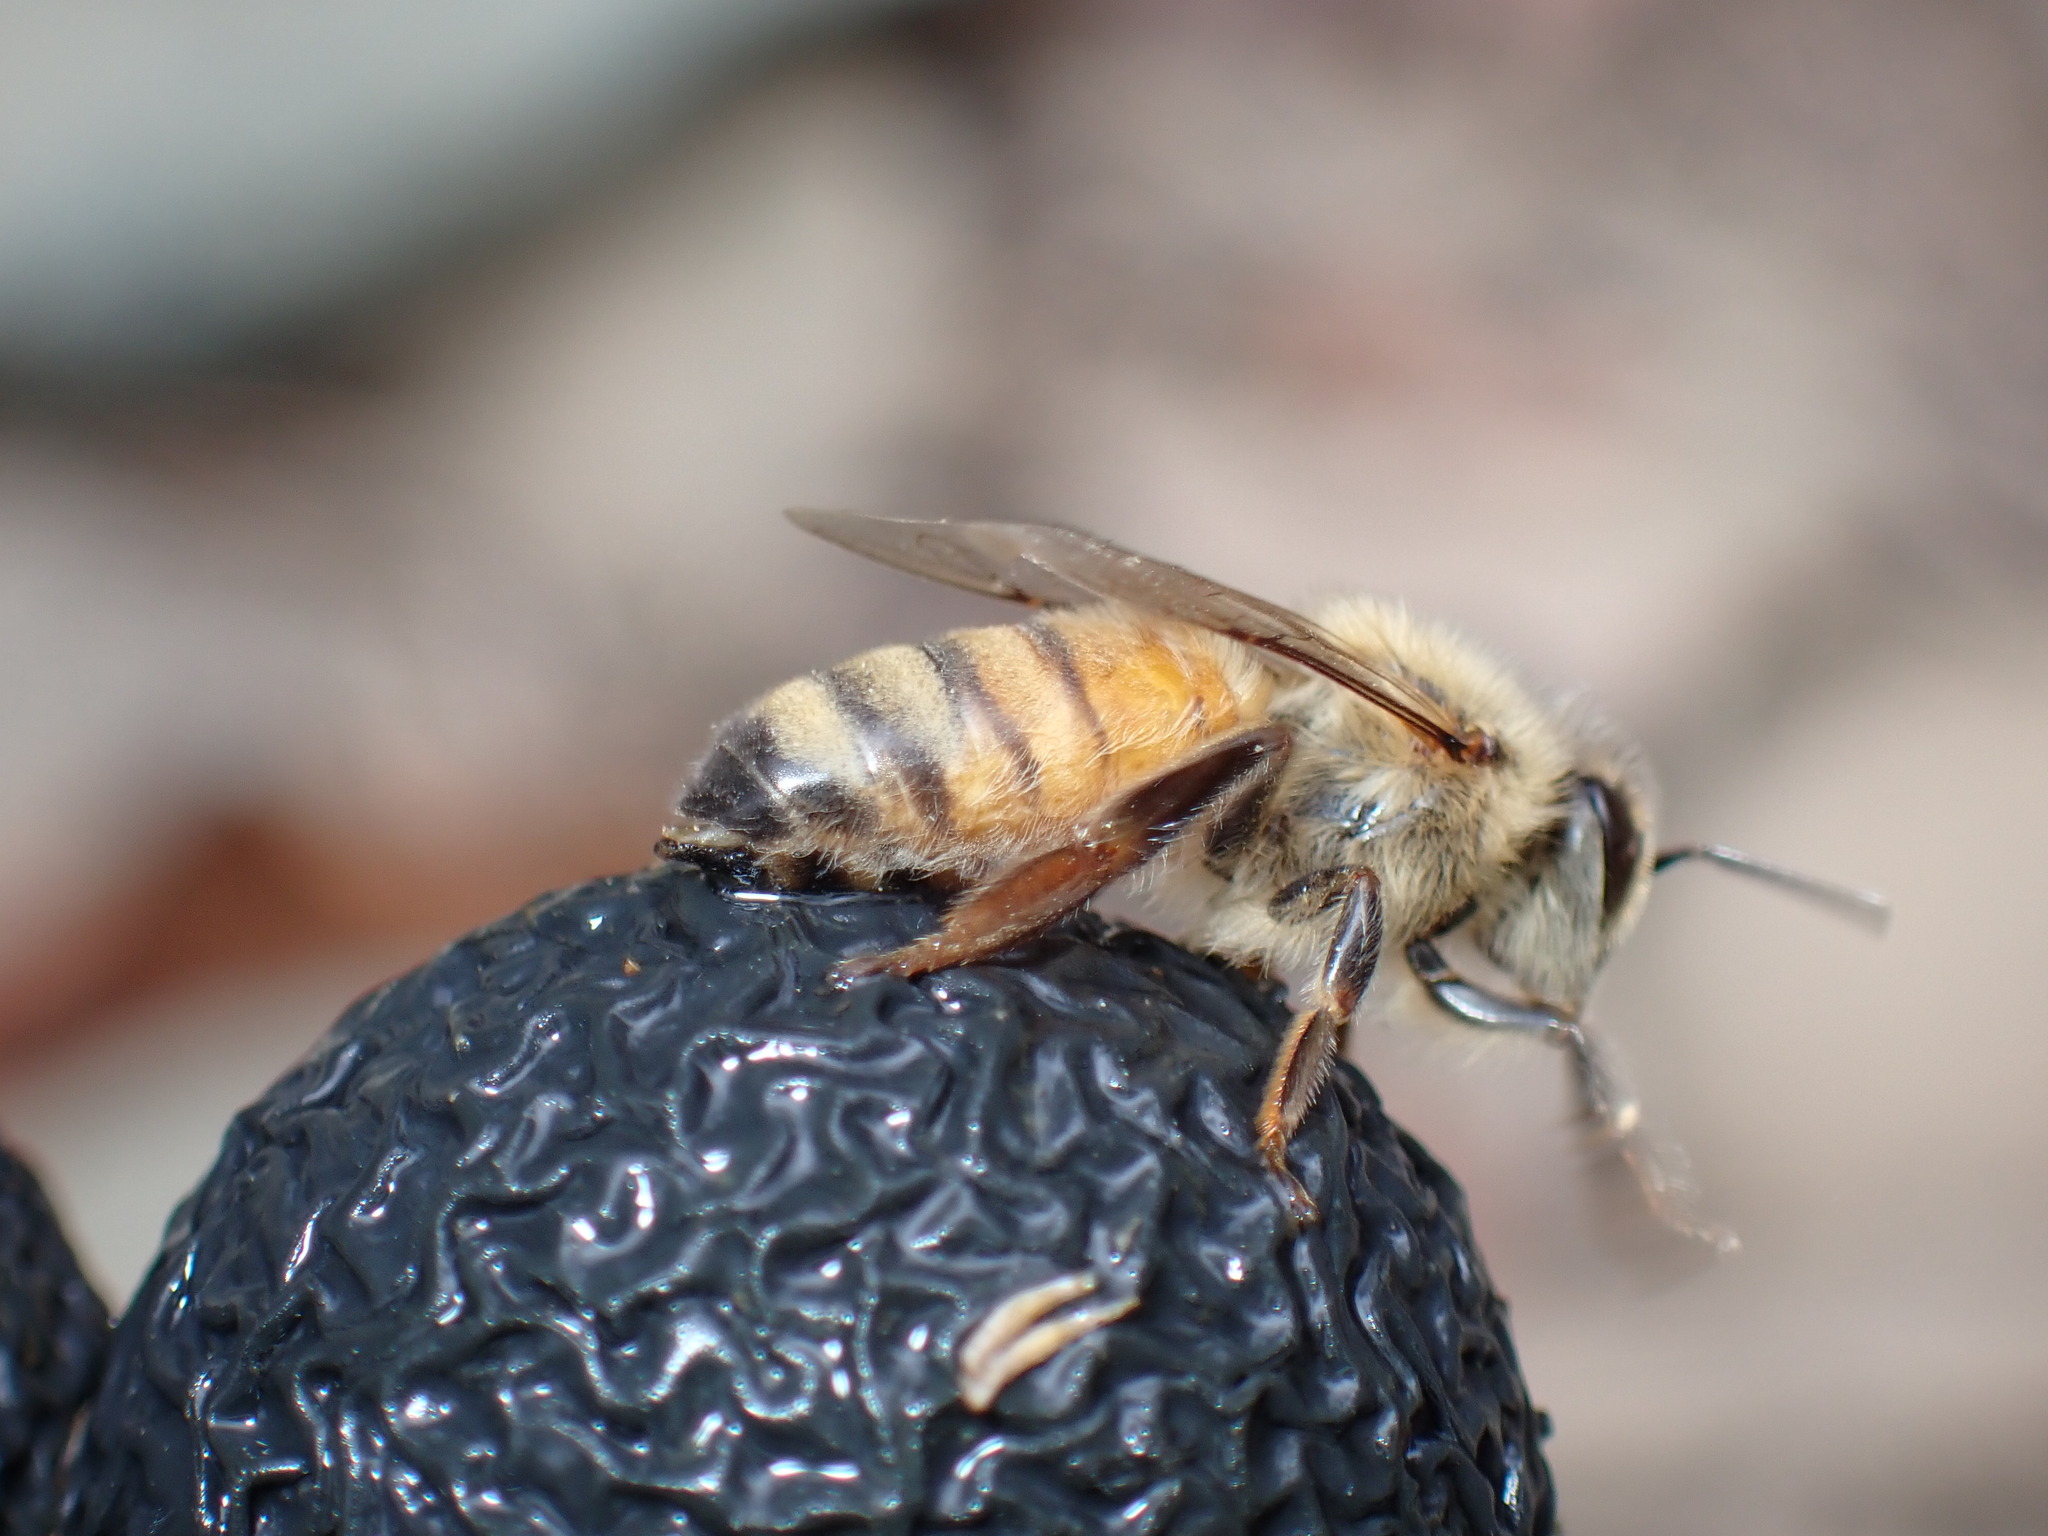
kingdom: Animalia
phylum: Arthropoda
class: Insecta
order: Hymenoptera
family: Apidae
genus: Apis
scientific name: Apis mellifera
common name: Honey bee
